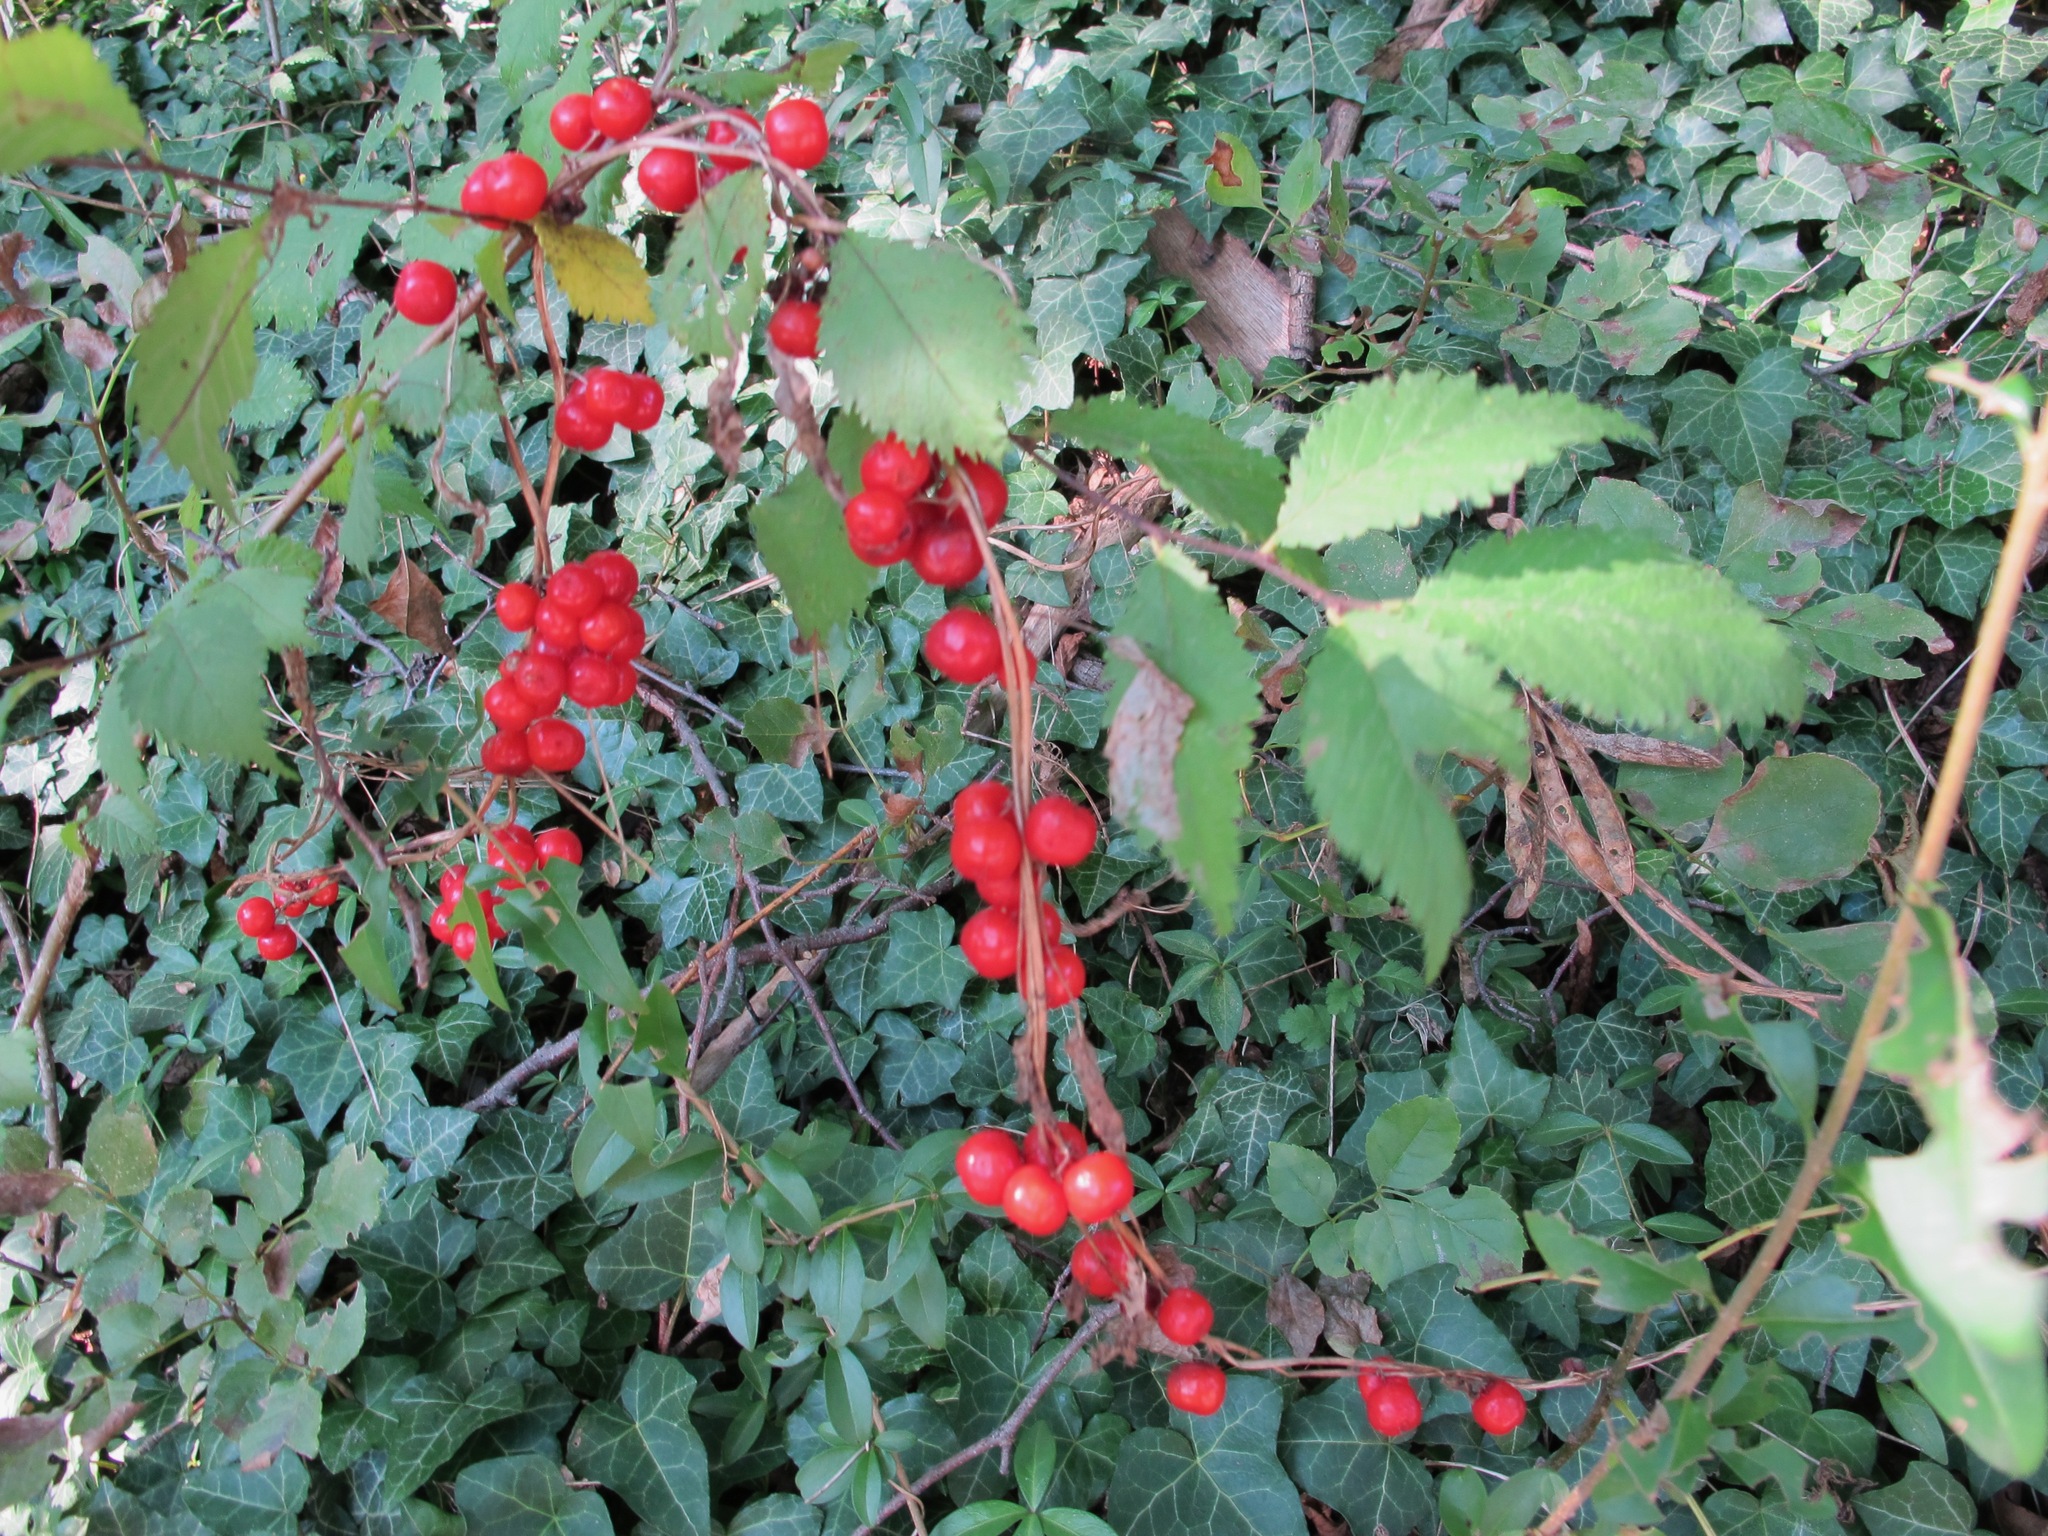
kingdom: Plantae
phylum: Tracheophyta
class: Liliopsida
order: Dioscoreales
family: Dioscoreaceae
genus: Dioscorea
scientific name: Dioscorea communis
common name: Black-bindweed
